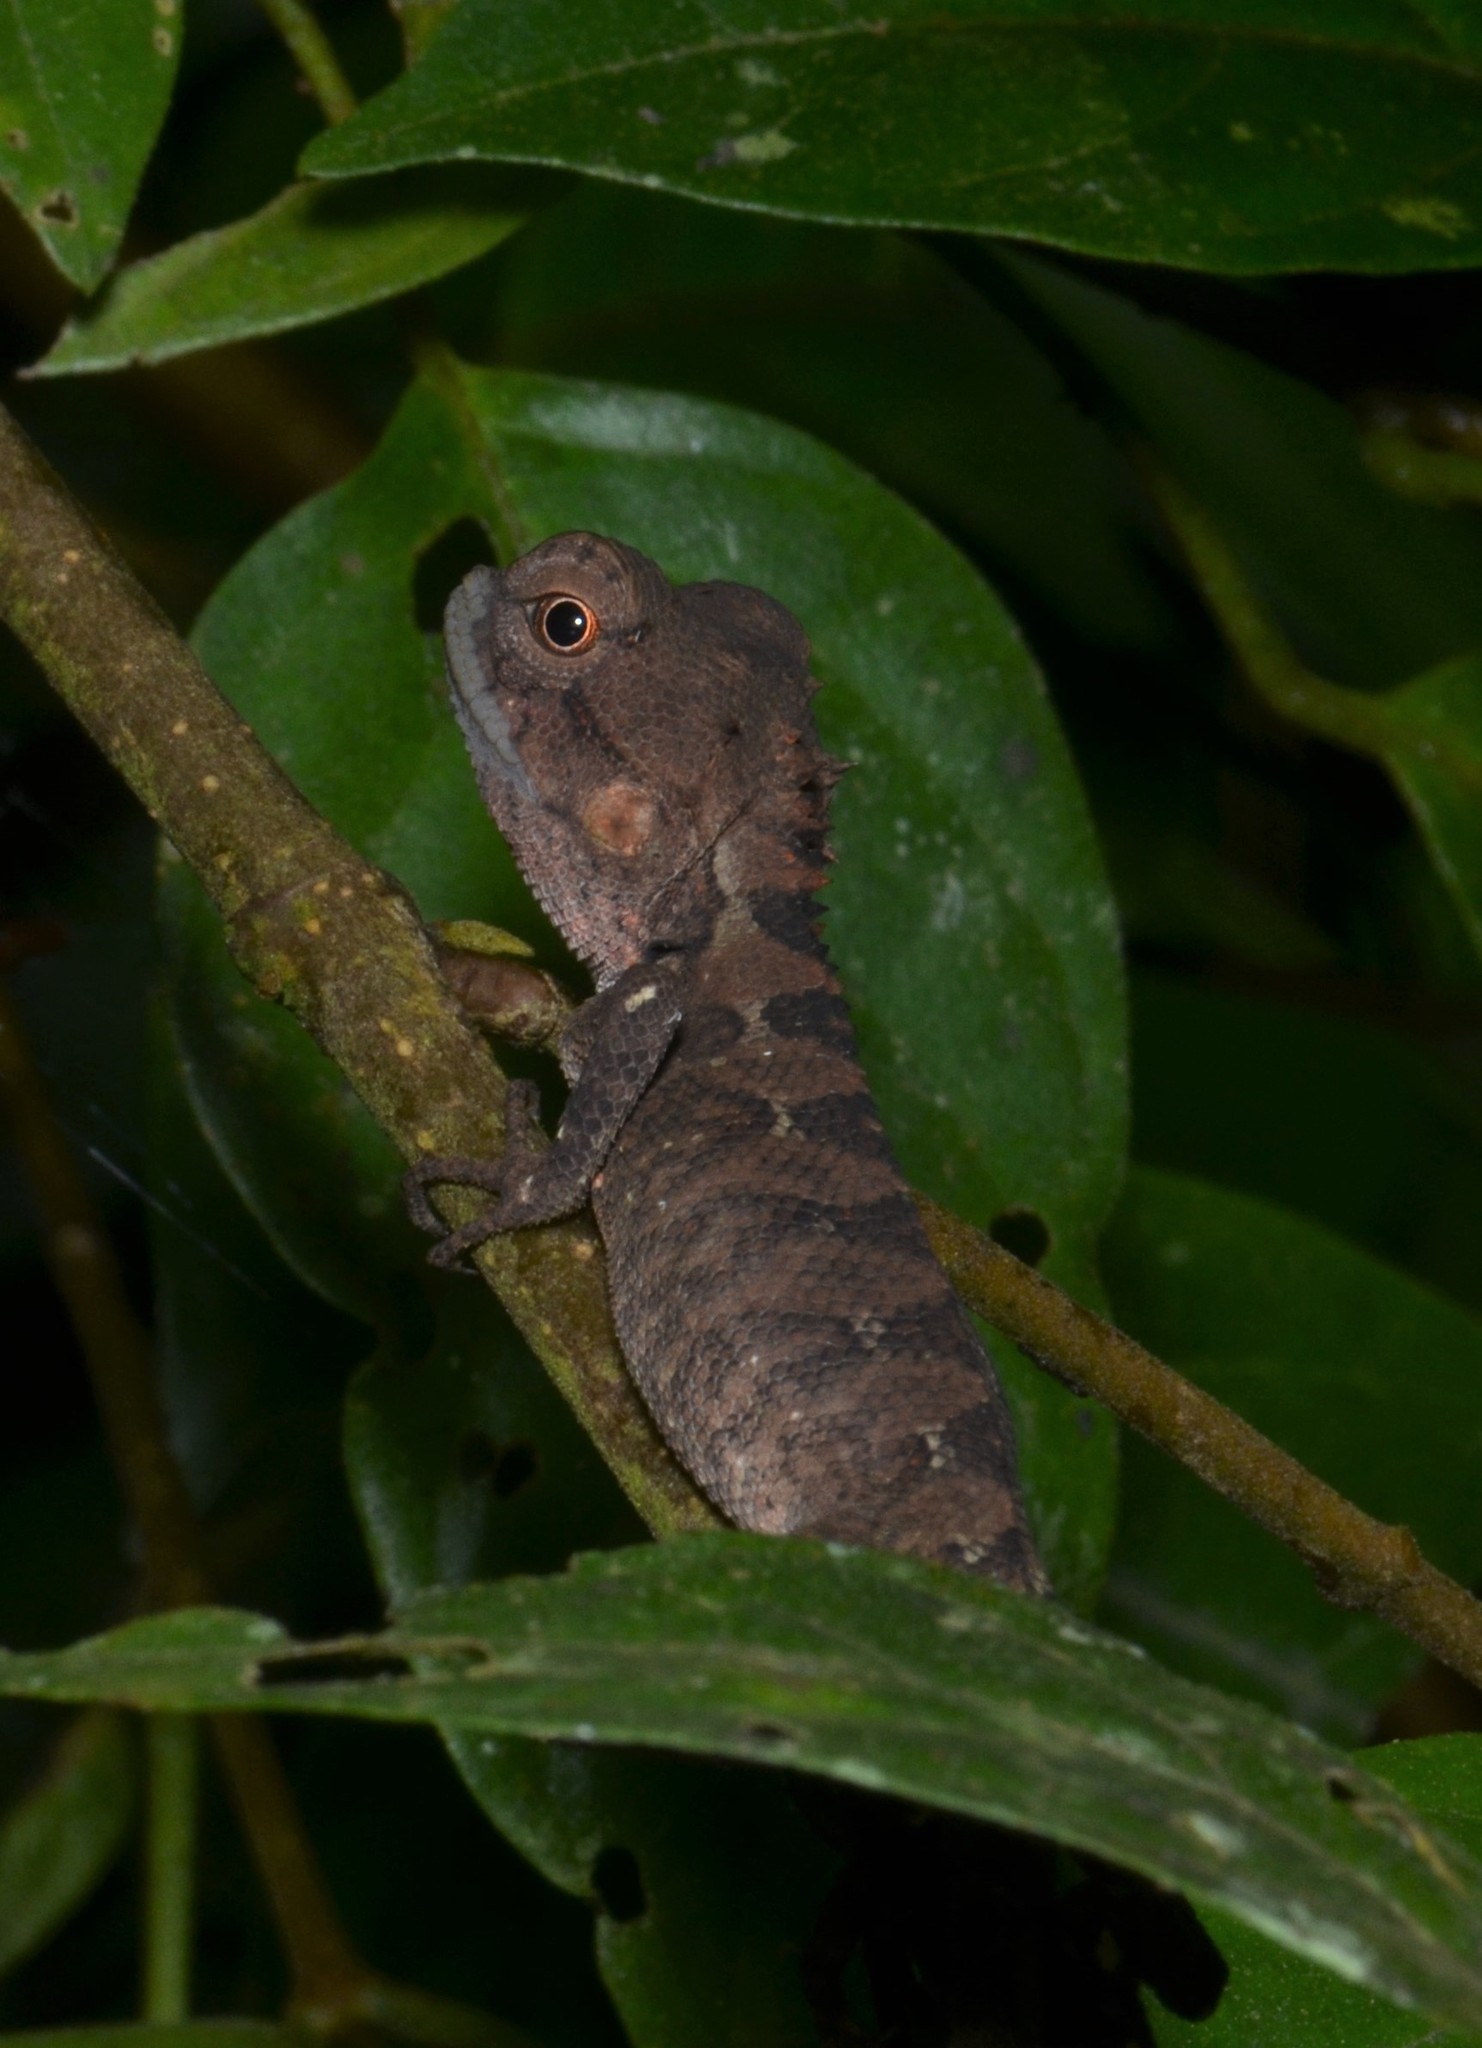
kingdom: Animalia
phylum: Chordata
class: Squamata
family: Agamidae
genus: Calotes
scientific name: Calotes emma
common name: Thailand bloodsucker
